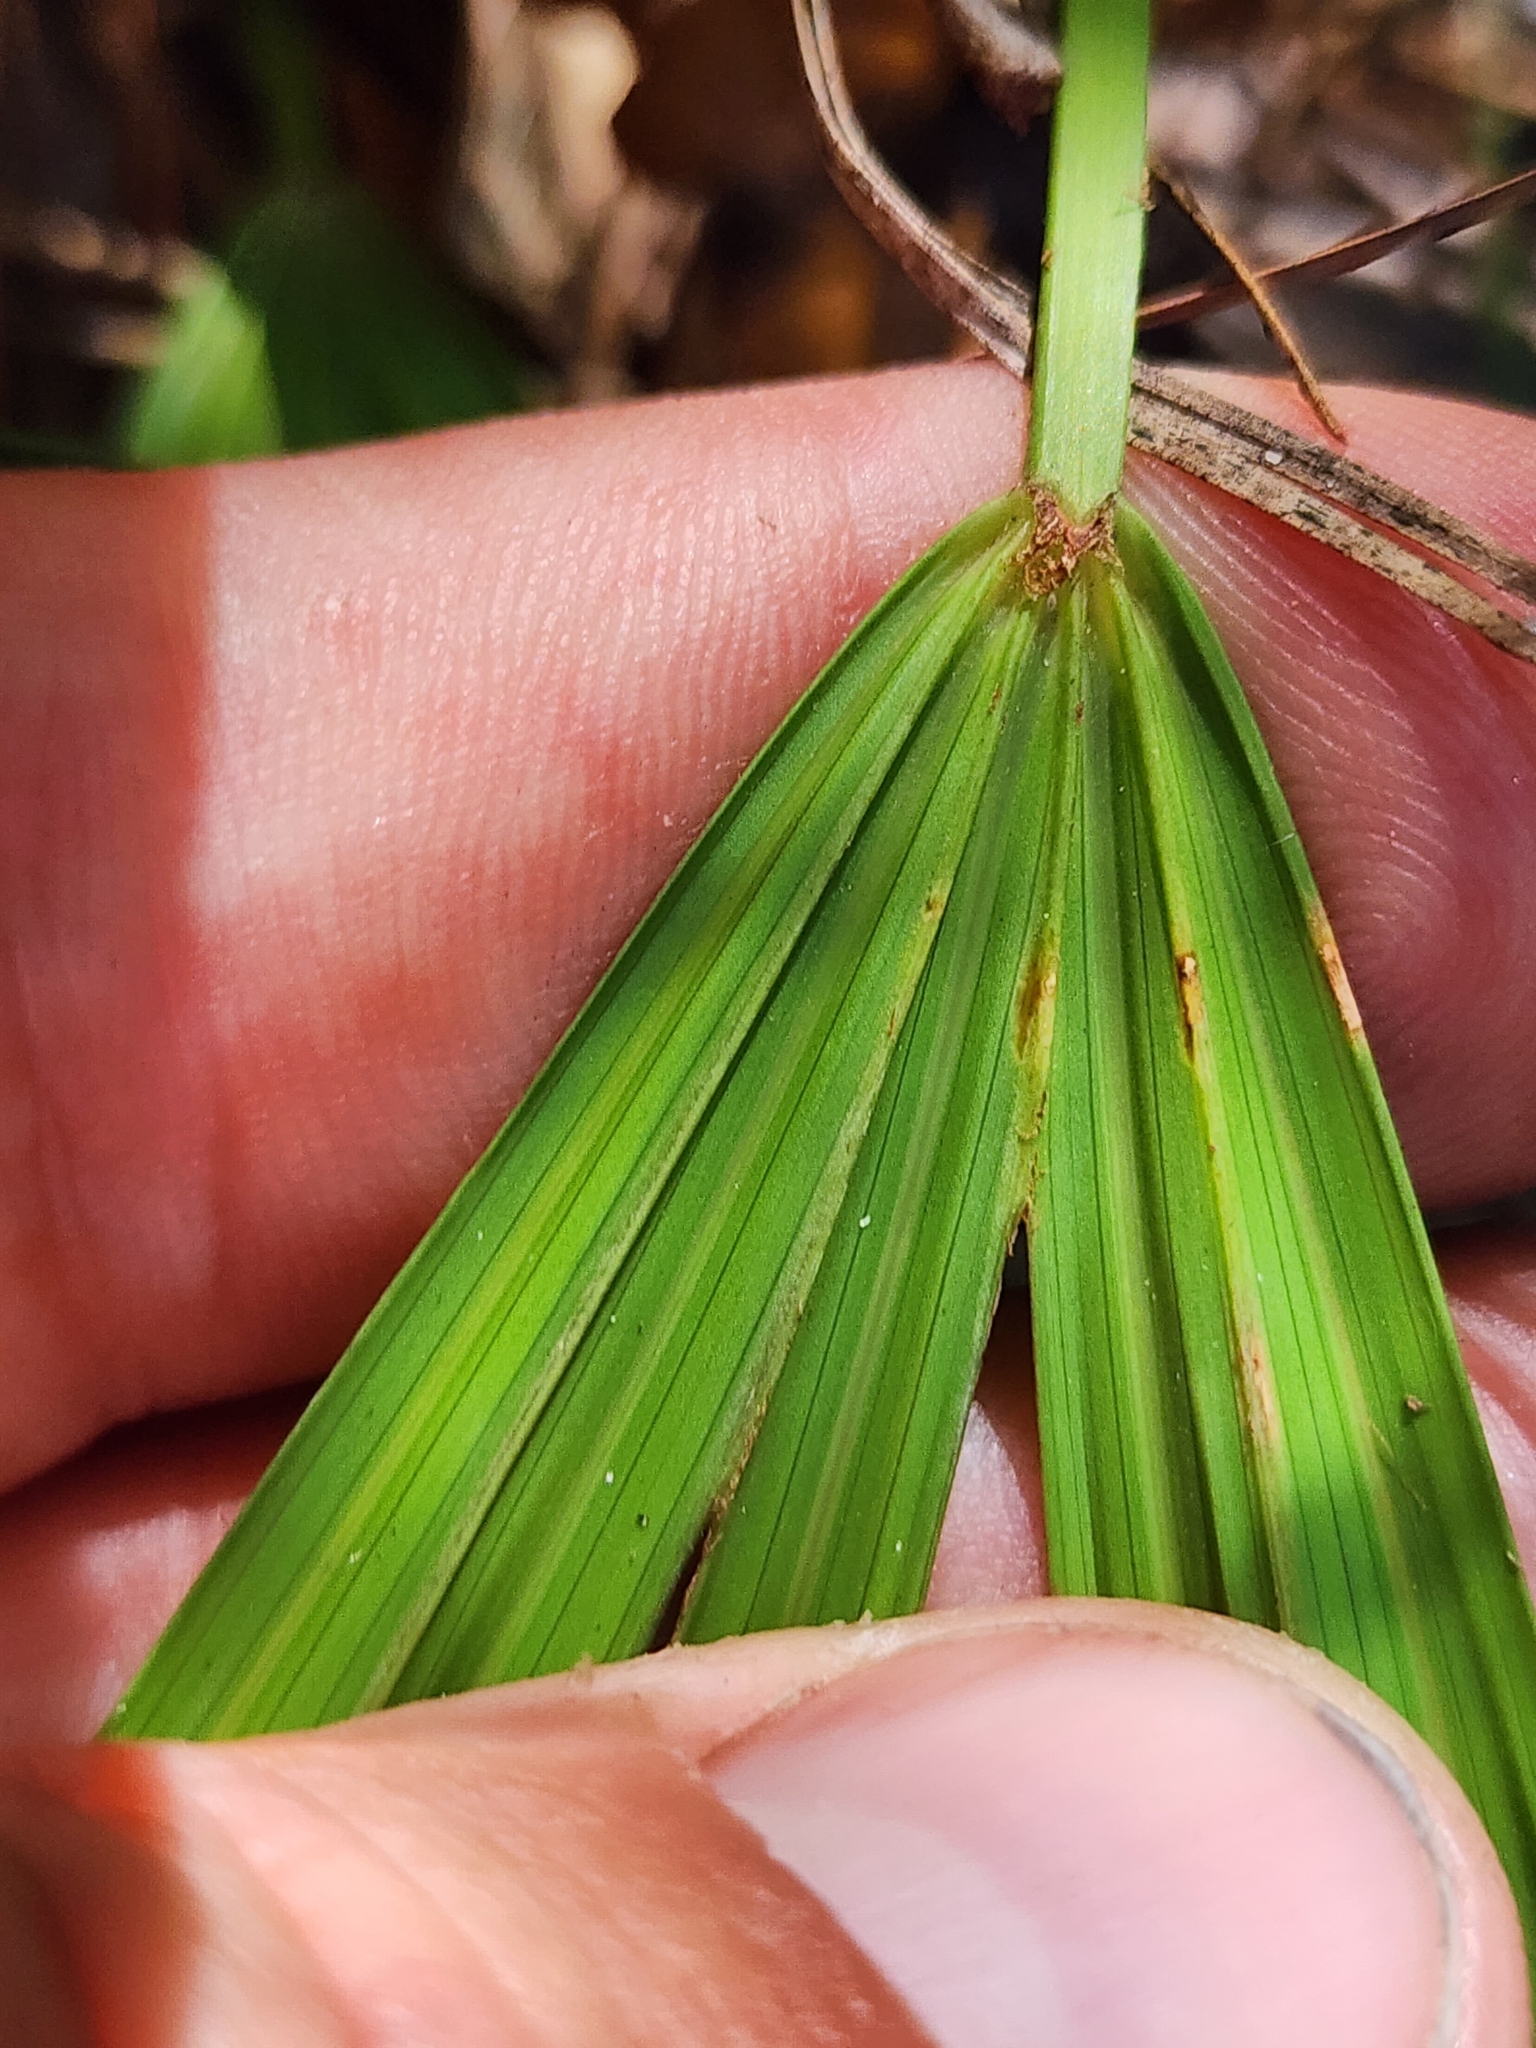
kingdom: Plantae
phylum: Tracheophyta
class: Liliopsida
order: Arecales
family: Arecaceae
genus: Serenoa
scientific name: Serenoa repens
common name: Saw-palmetto
